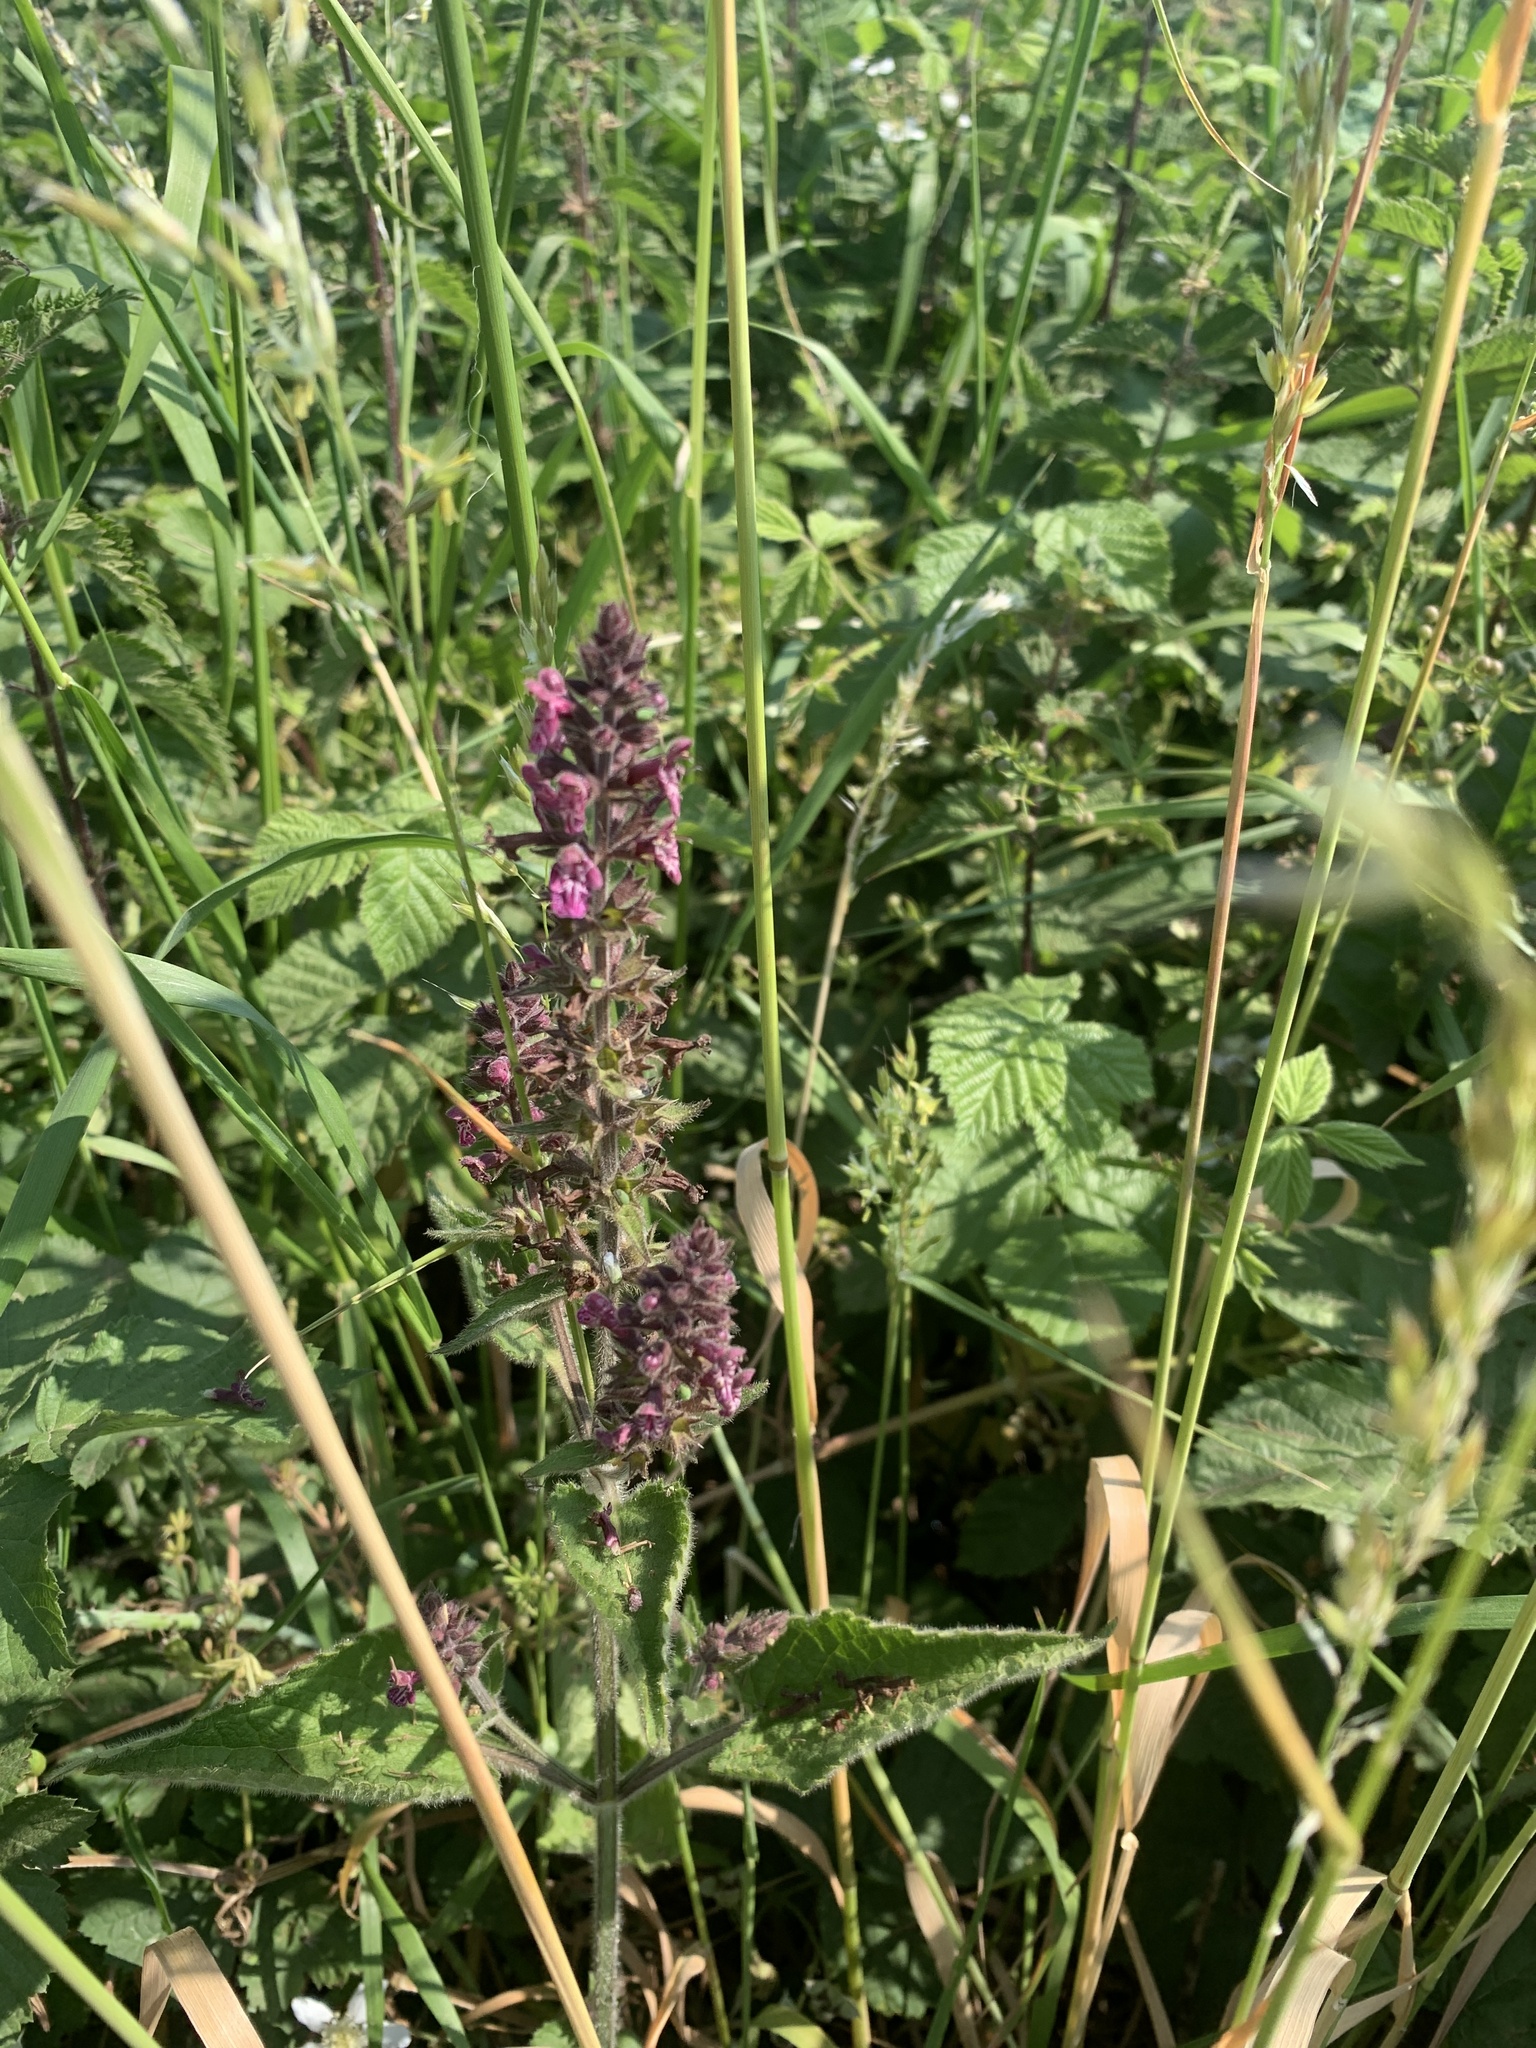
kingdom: Plantae
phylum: Tracheophyta
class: Magnoliopsida
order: Lamiales
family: Lamiaceae
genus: Stachys
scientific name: Stachys sylvatica
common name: Hedge woundwort
